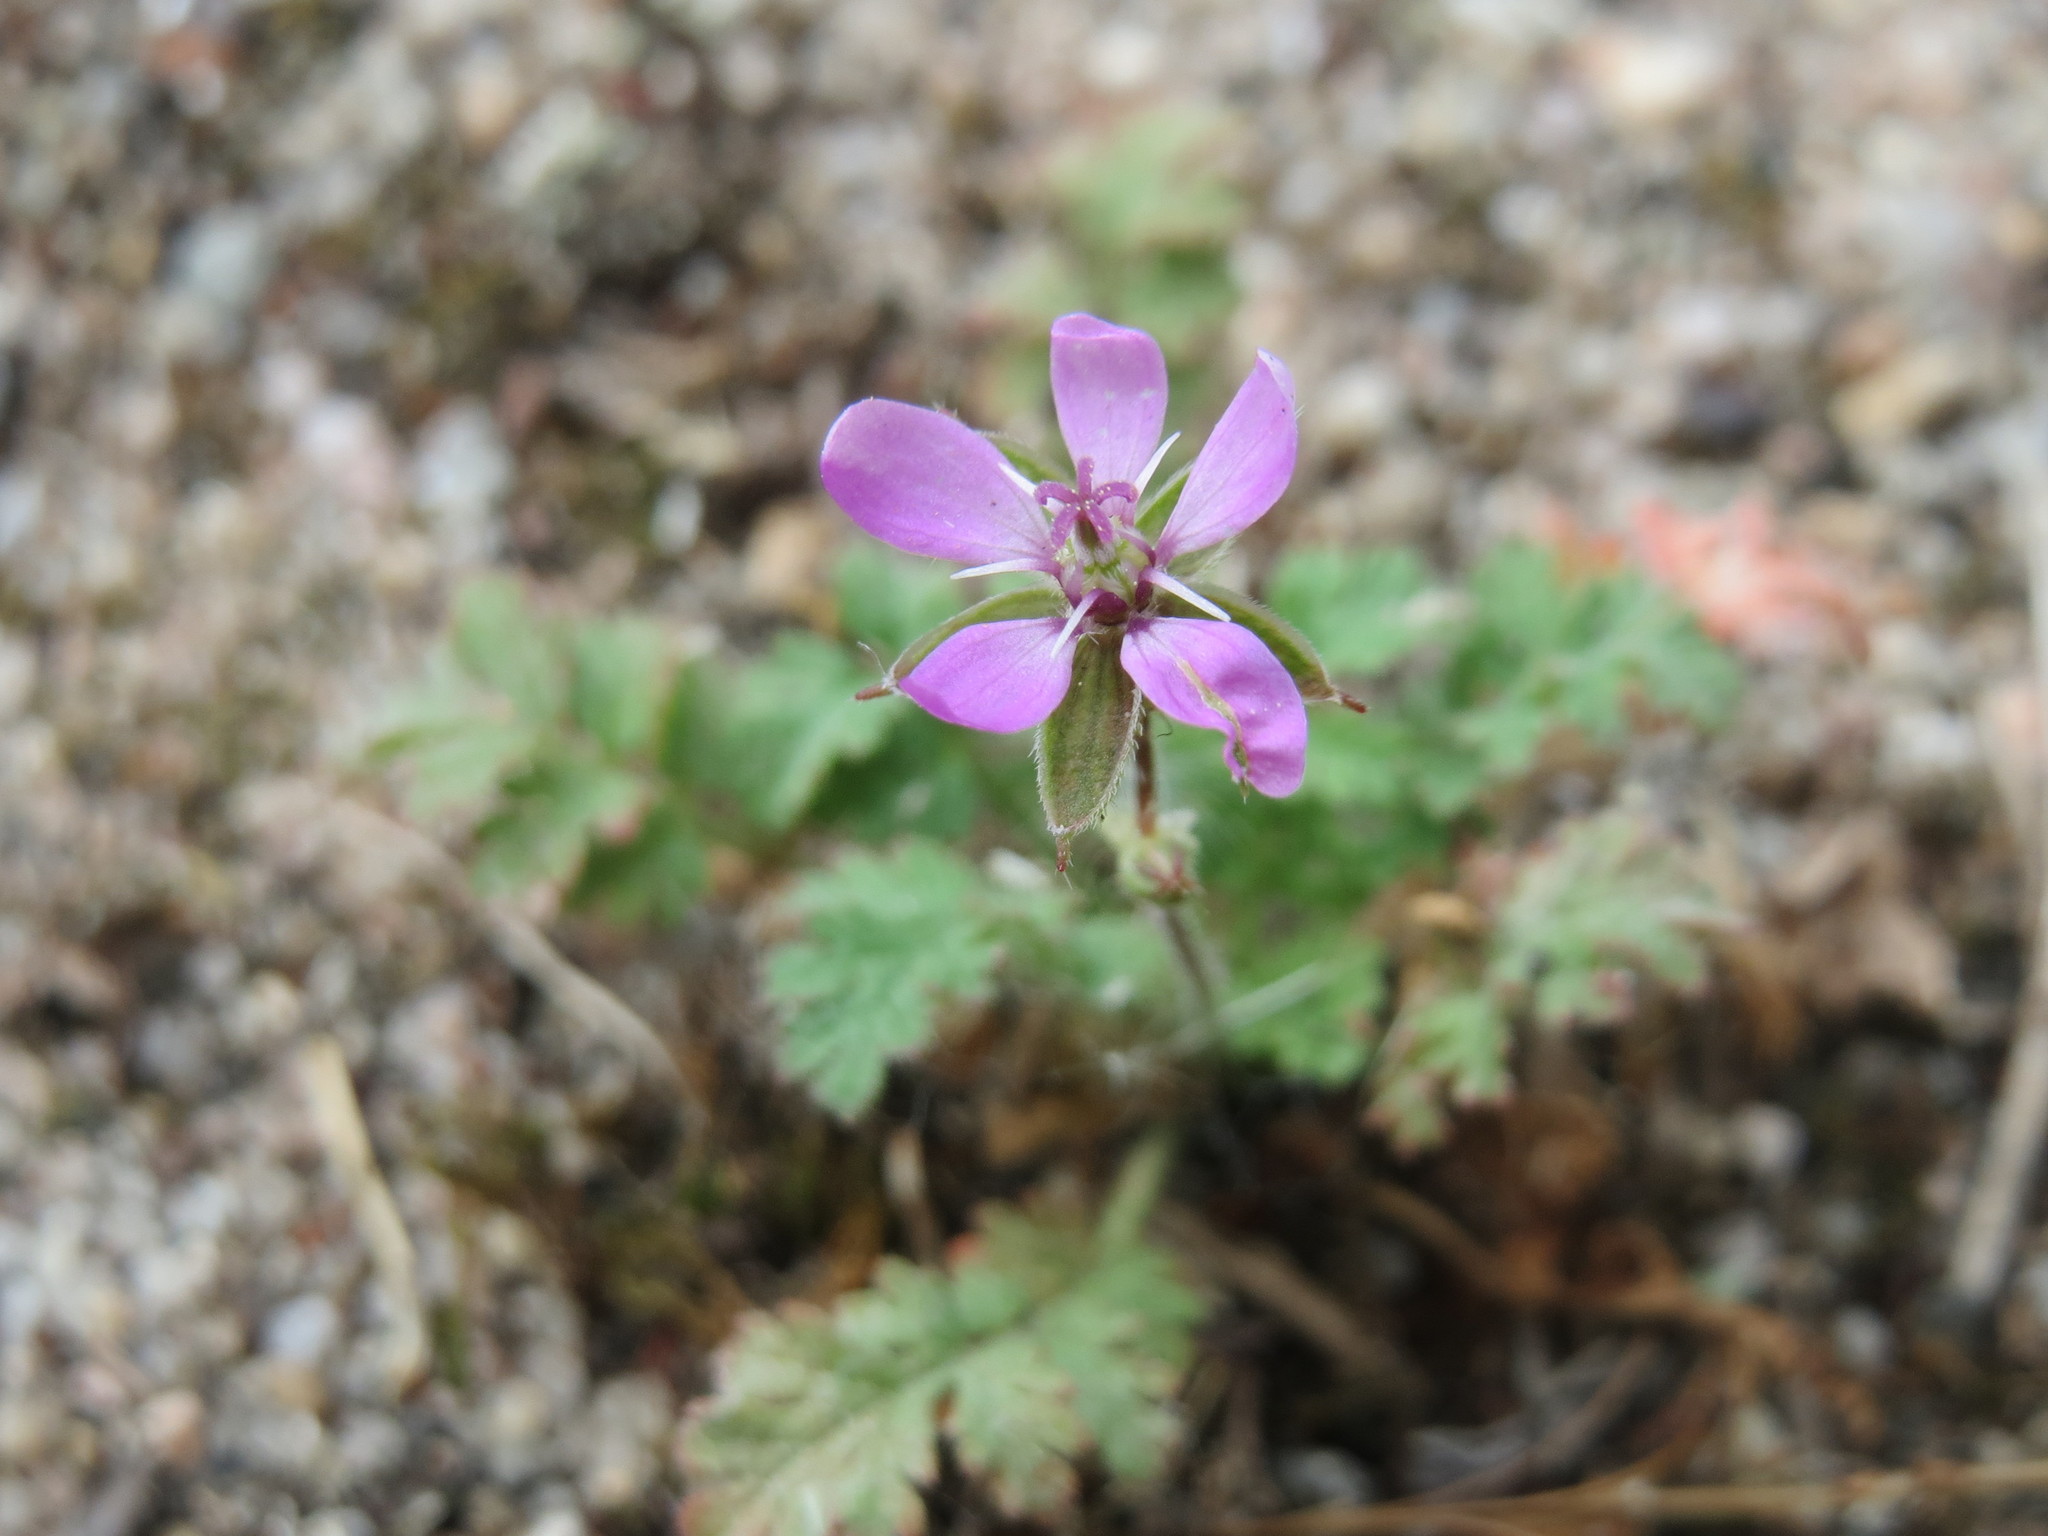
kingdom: Plantae
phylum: Tracheophyta
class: Magnoliopsida
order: Geraniales
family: Geraniaceae
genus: Erodium
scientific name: Erodium cicutarium
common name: Common stork's-bill
